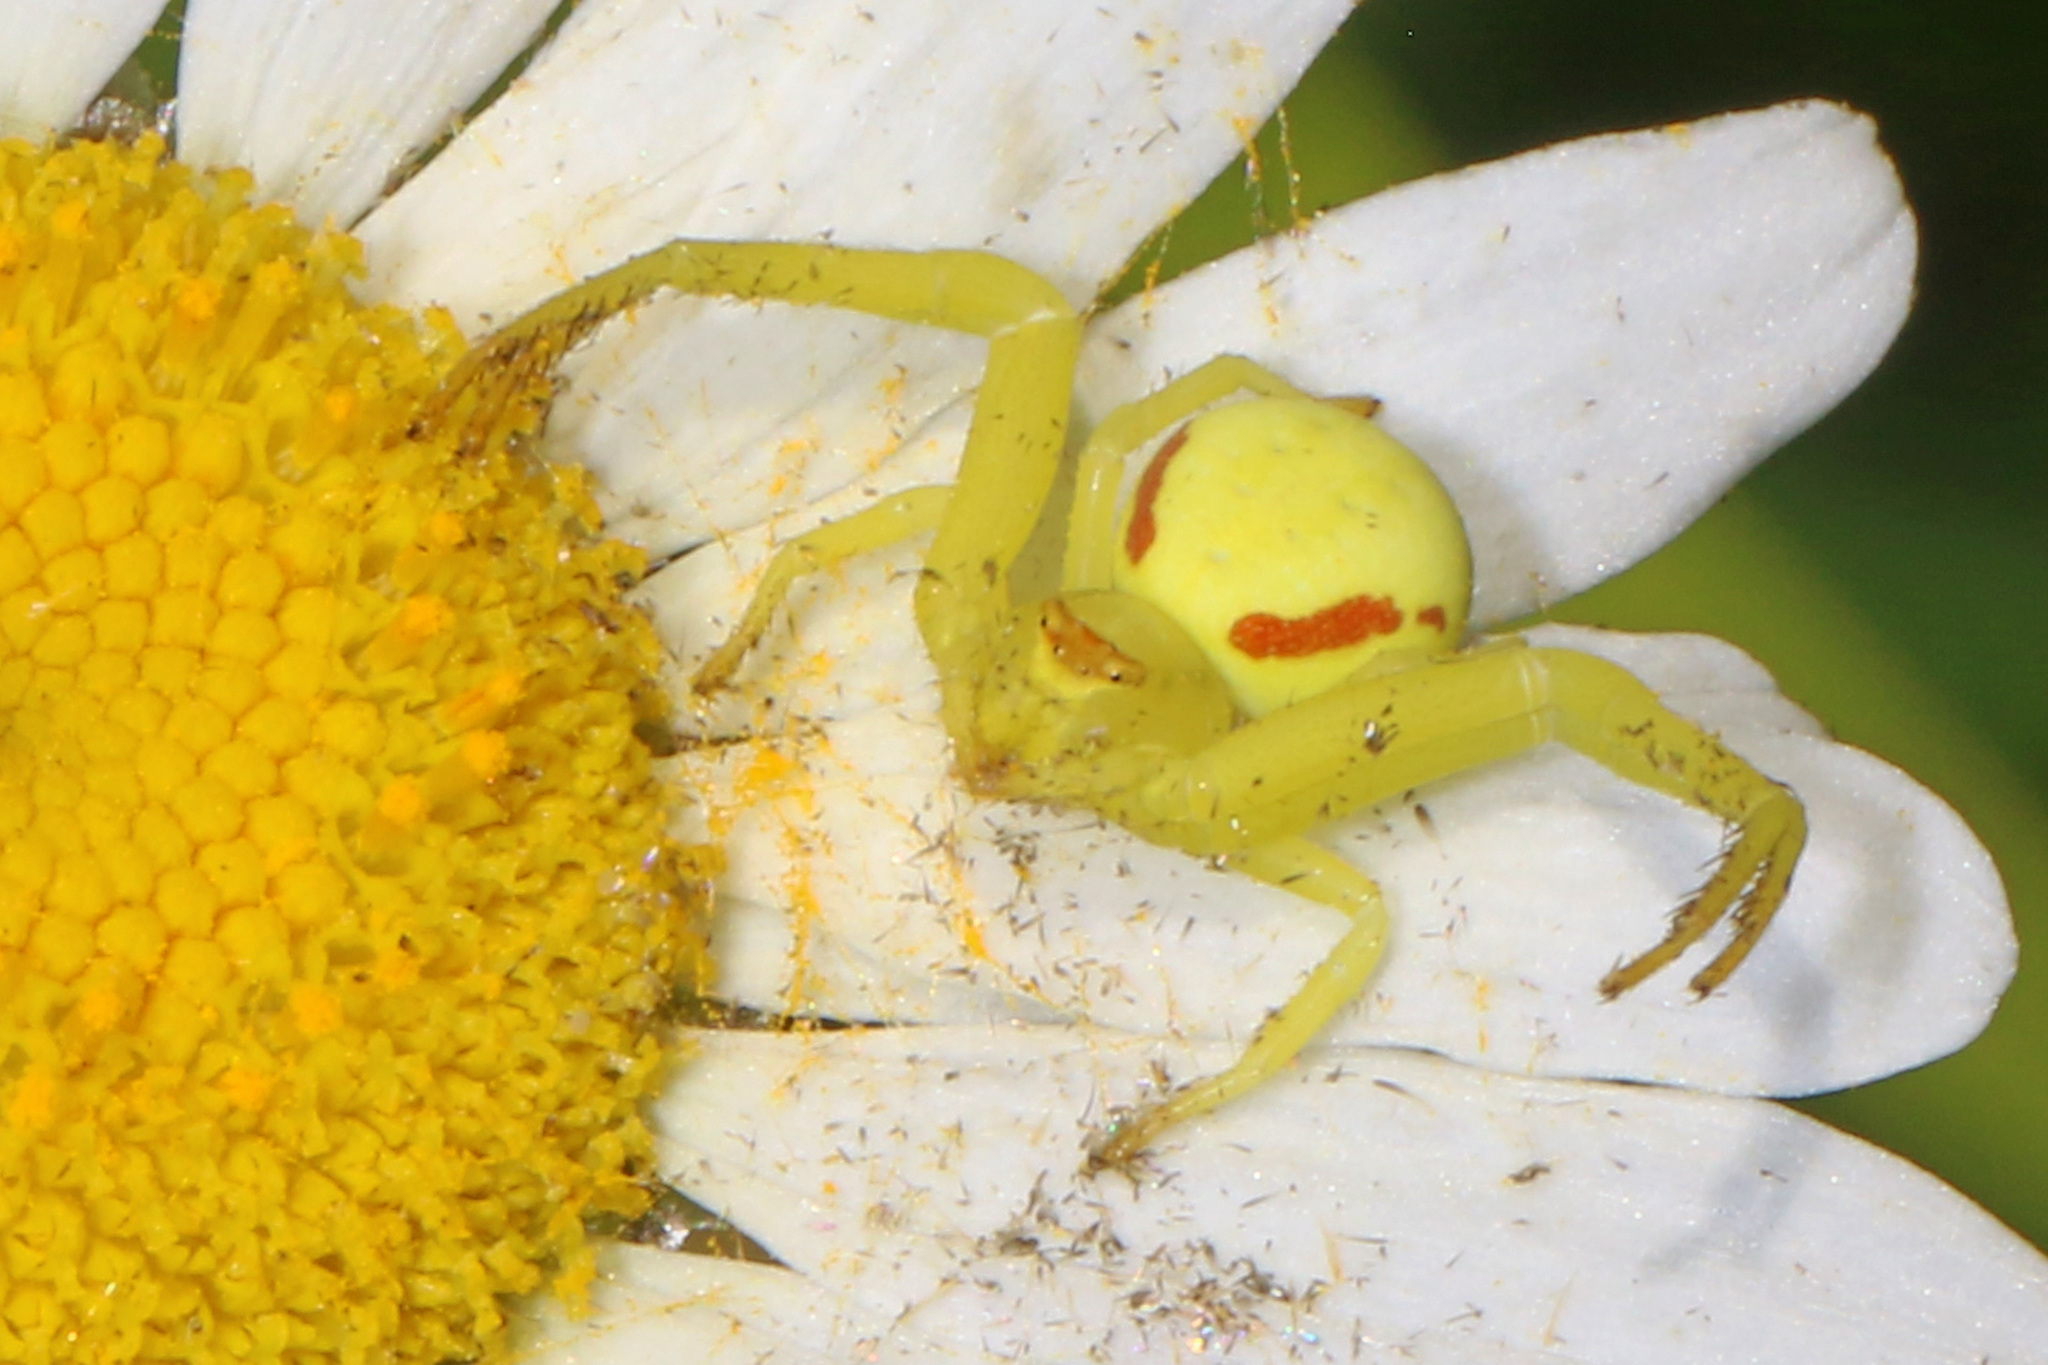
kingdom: Animalia
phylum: Arthropoda
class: Arachnida
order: Araneae
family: Thomisidae
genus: Misumena
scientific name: Misumena vatia
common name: Goldenrod crab spider
